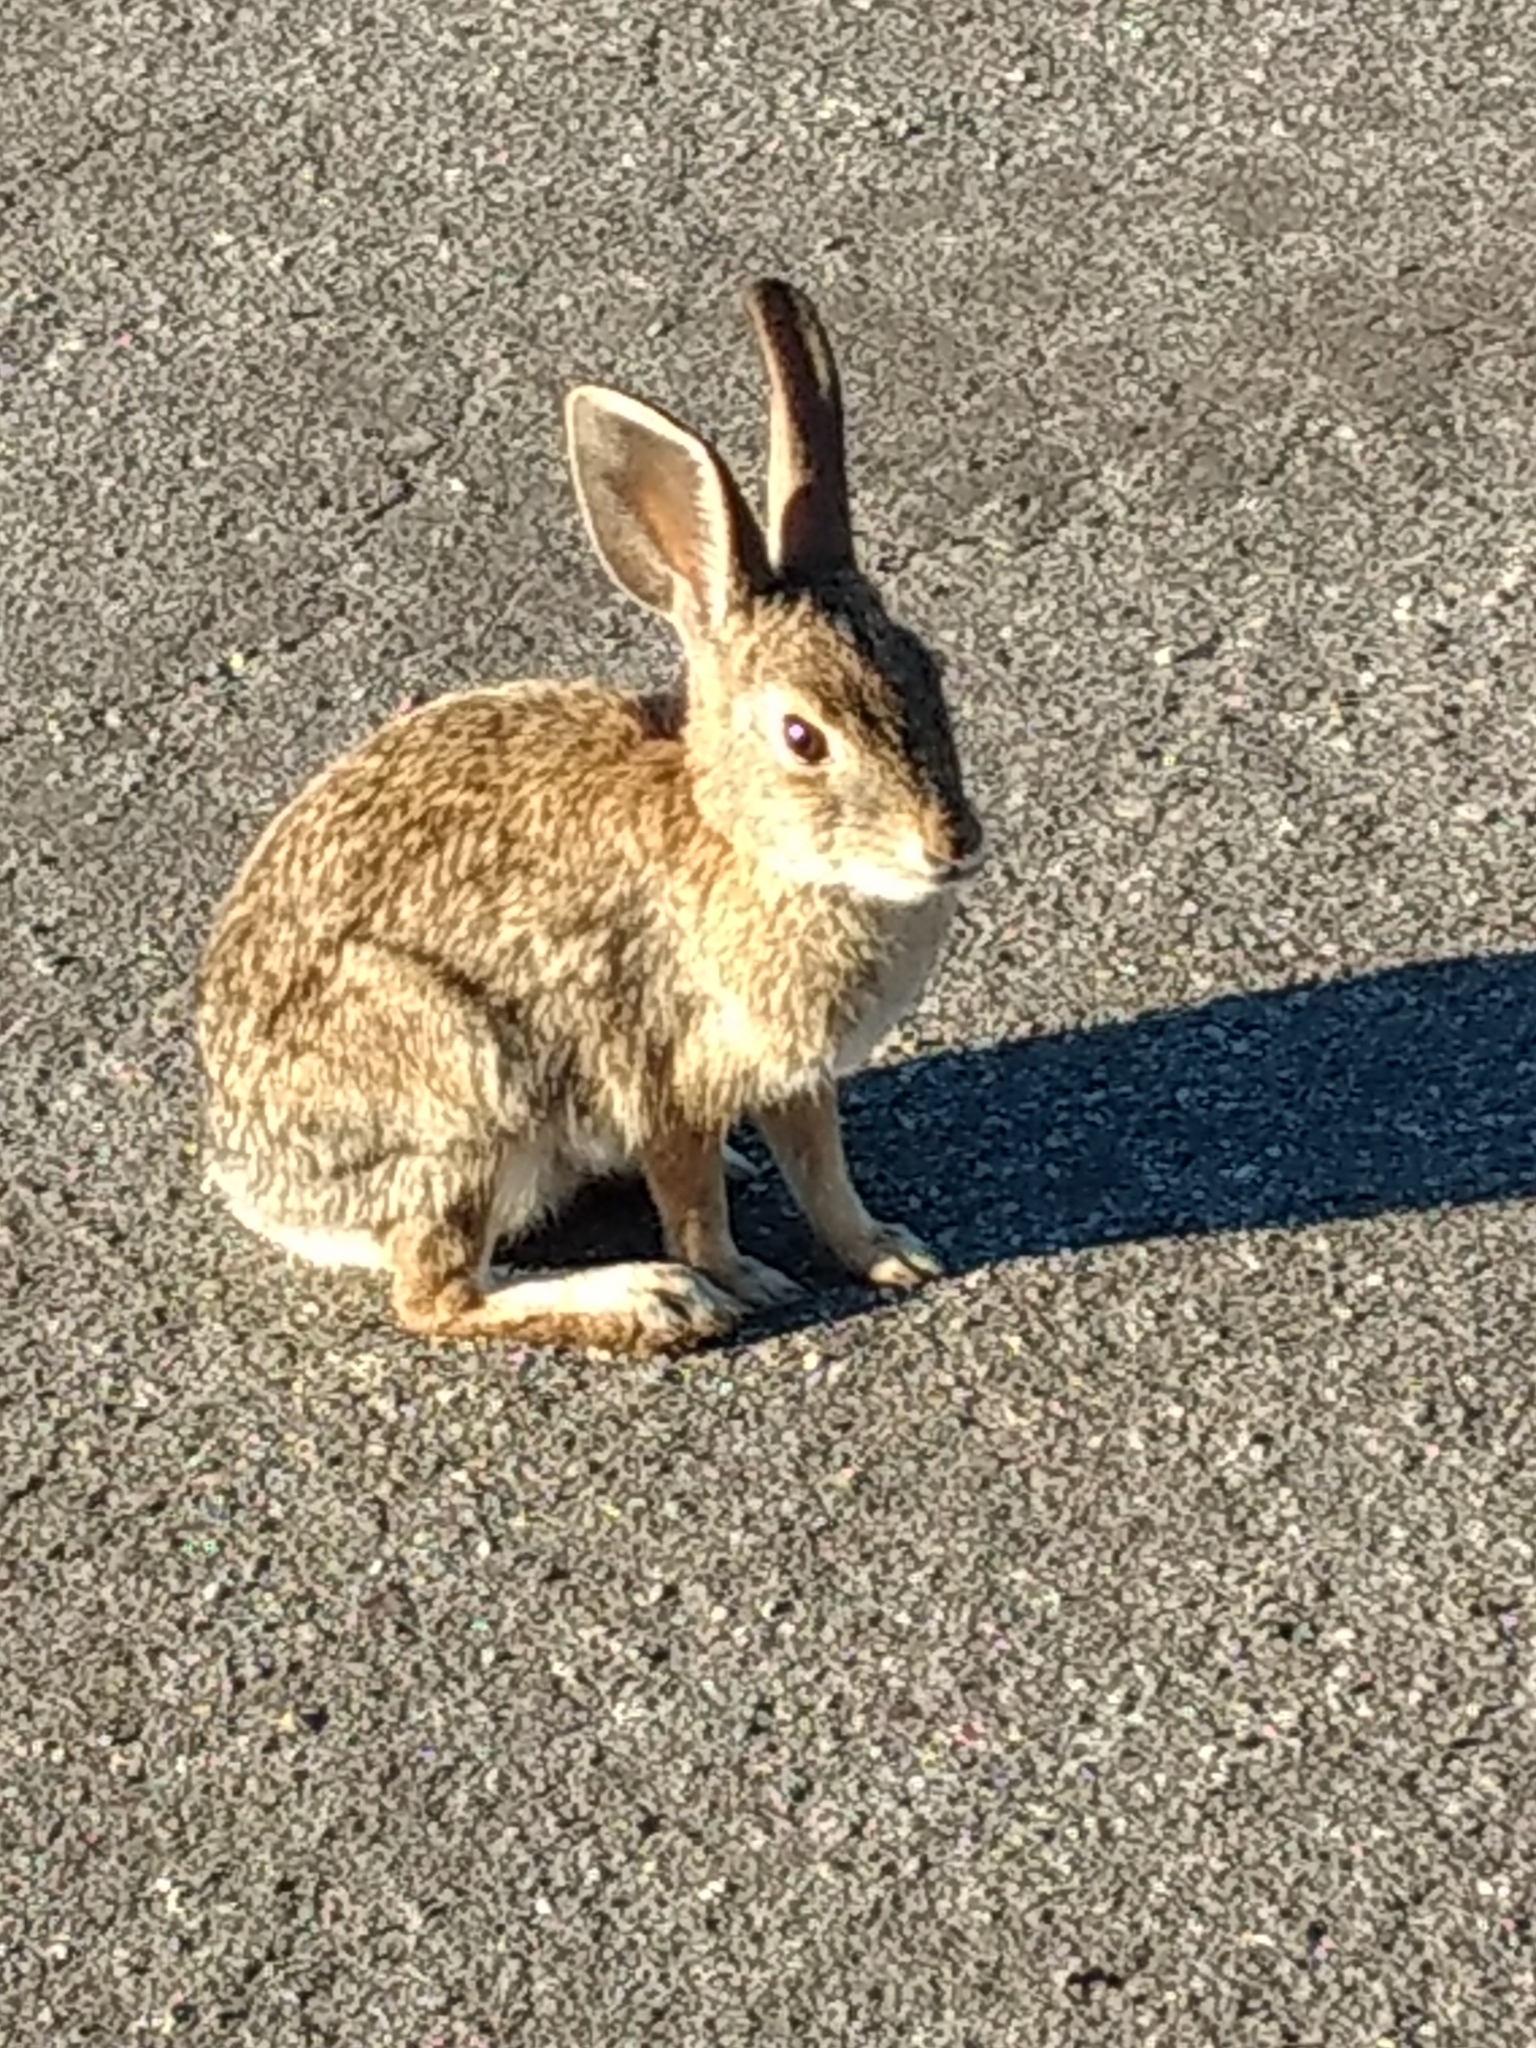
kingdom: Animalia
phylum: Chordata
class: Mammalia
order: Lagomorpha
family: Leporidae
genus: Sylvilagus
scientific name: Sylvilagus audubonii
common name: Desert cottontail
